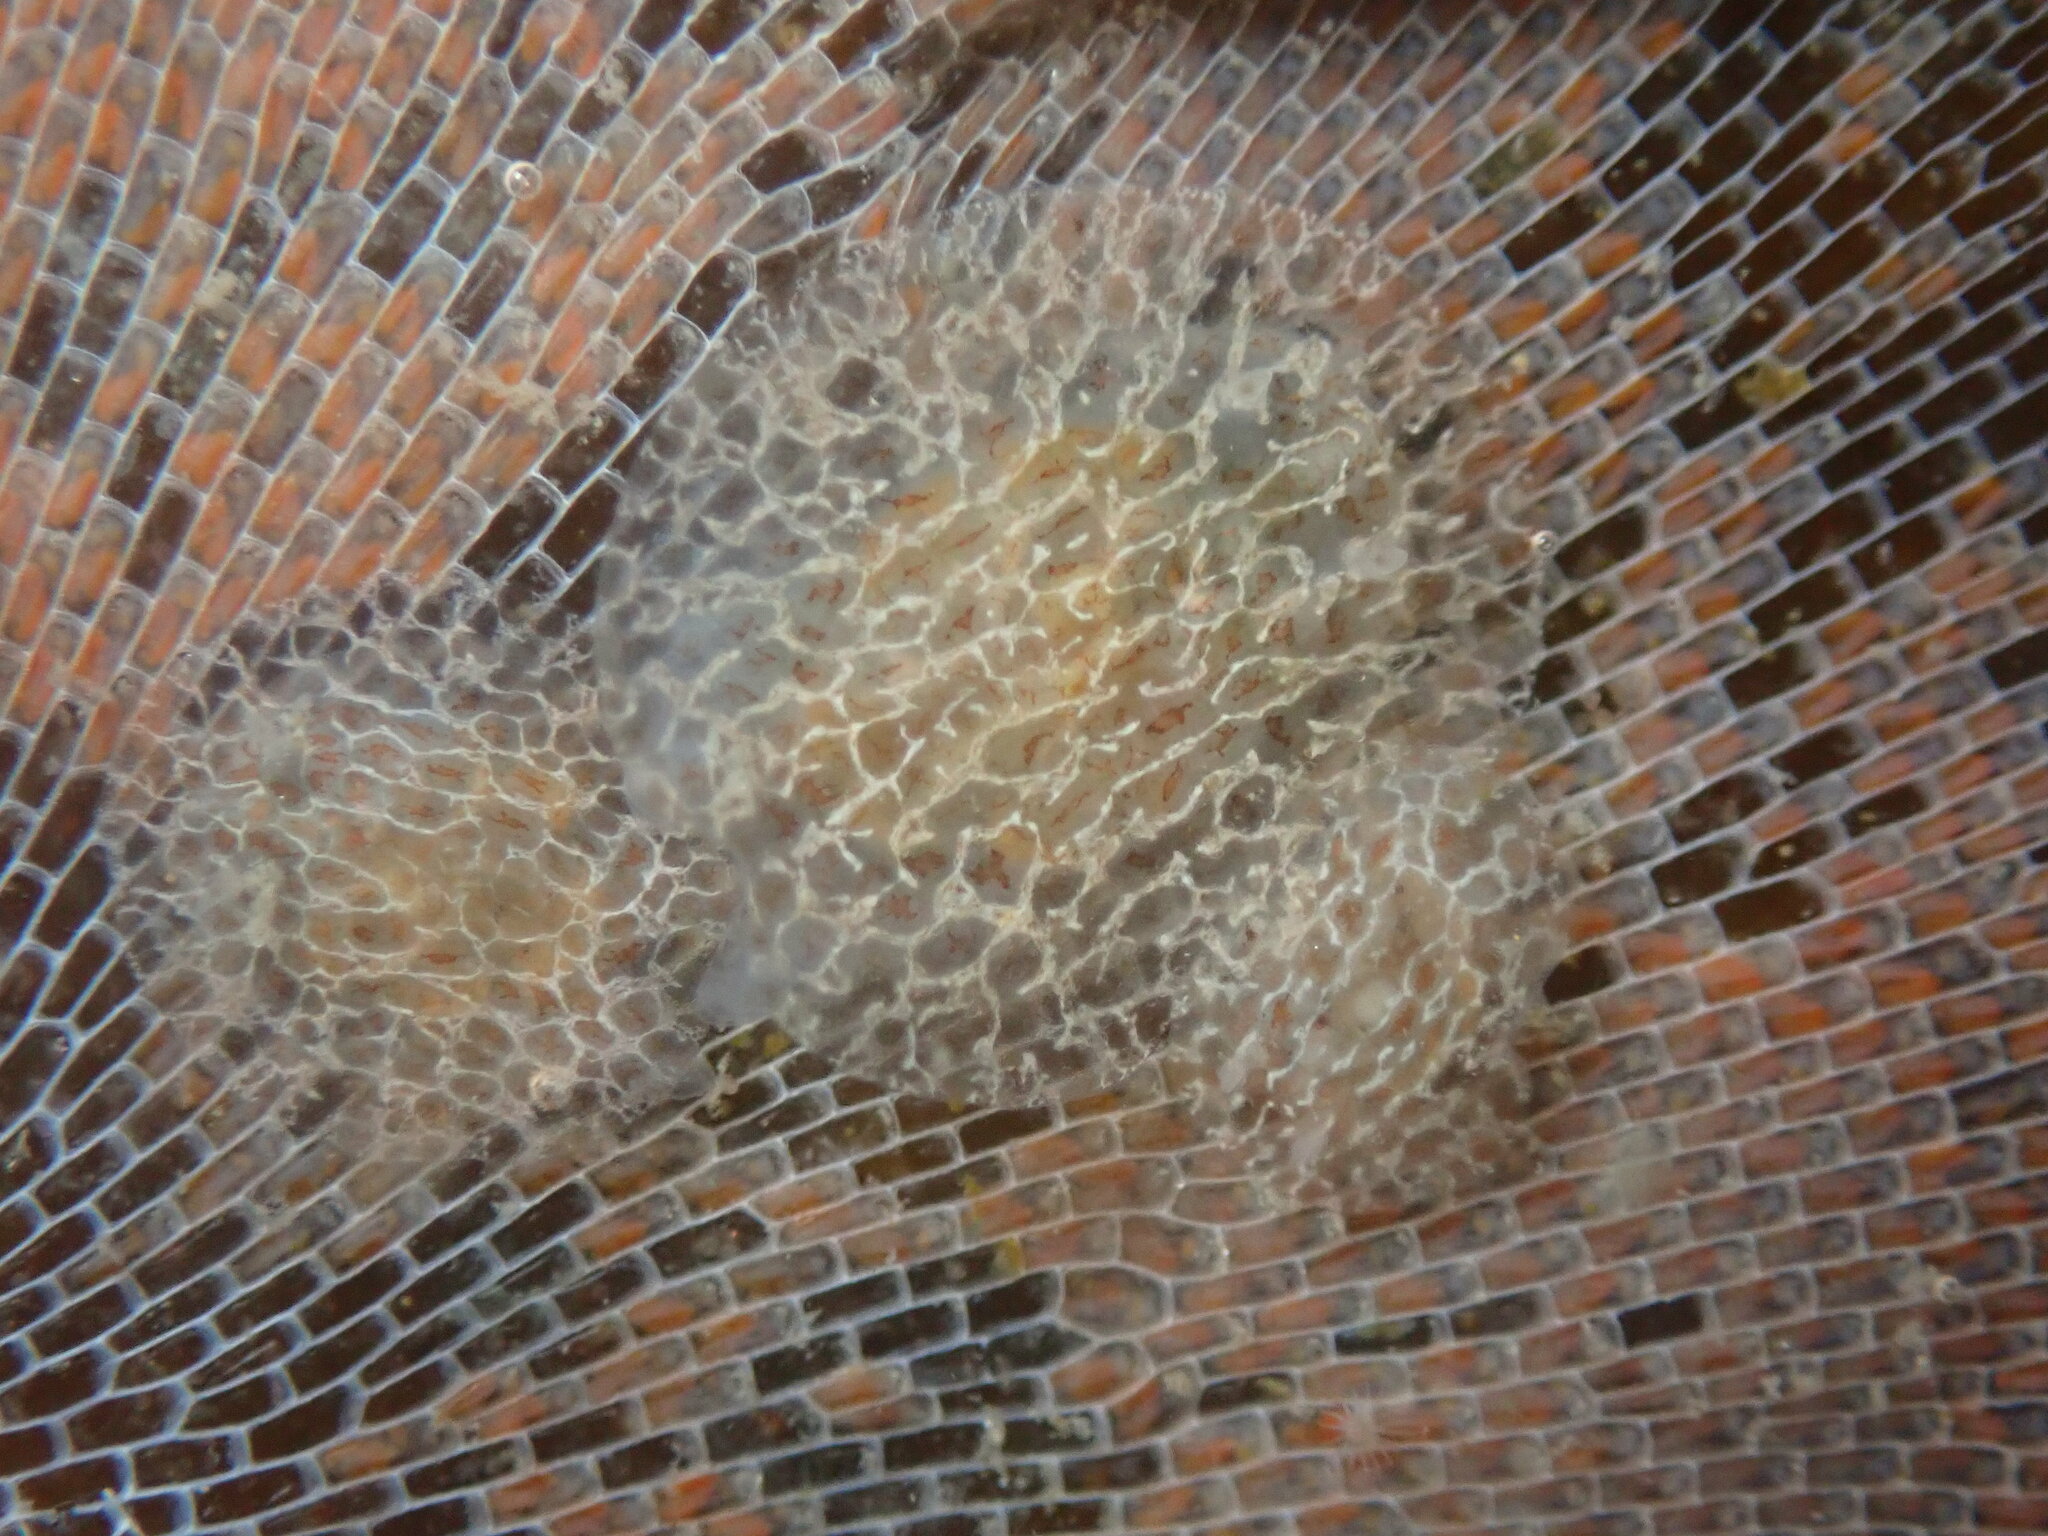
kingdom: Animalia
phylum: Mollusca
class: Gastropoda
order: Nudibranchia
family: Corambidae
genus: Corambe
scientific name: Corambe pacifica
